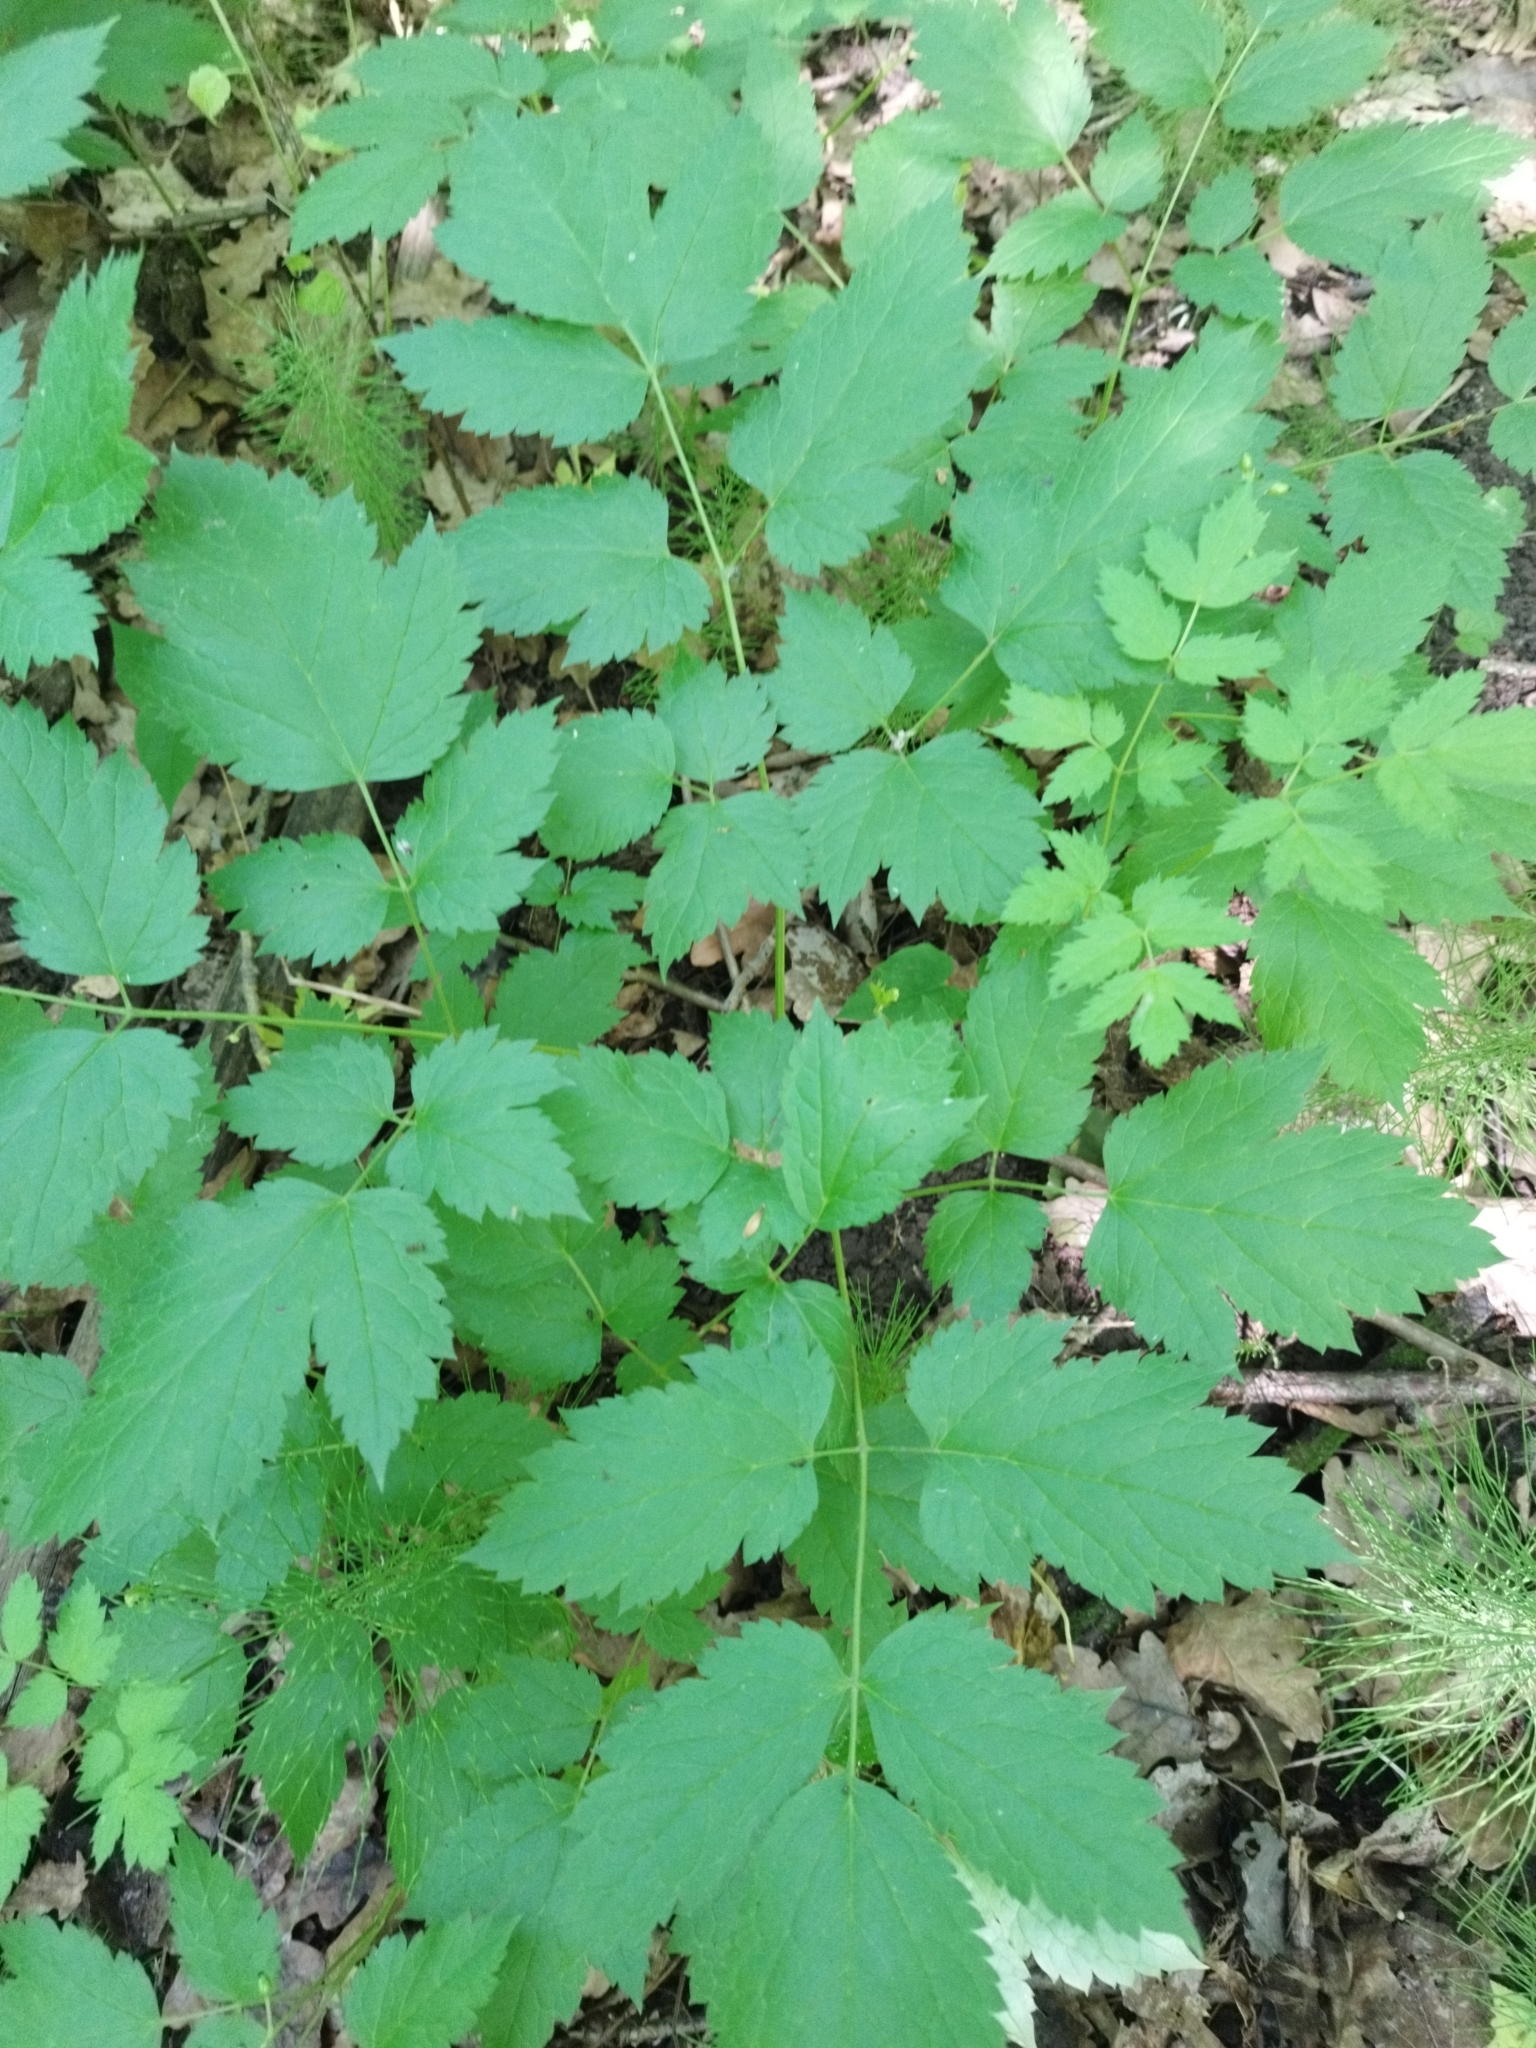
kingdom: Plantae
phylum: Tracheophyta
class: Magnoliopsida
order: Ranunculales
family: Ranunculaceae
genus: Actaea
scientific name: Actaea spicata
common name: Baneberry
